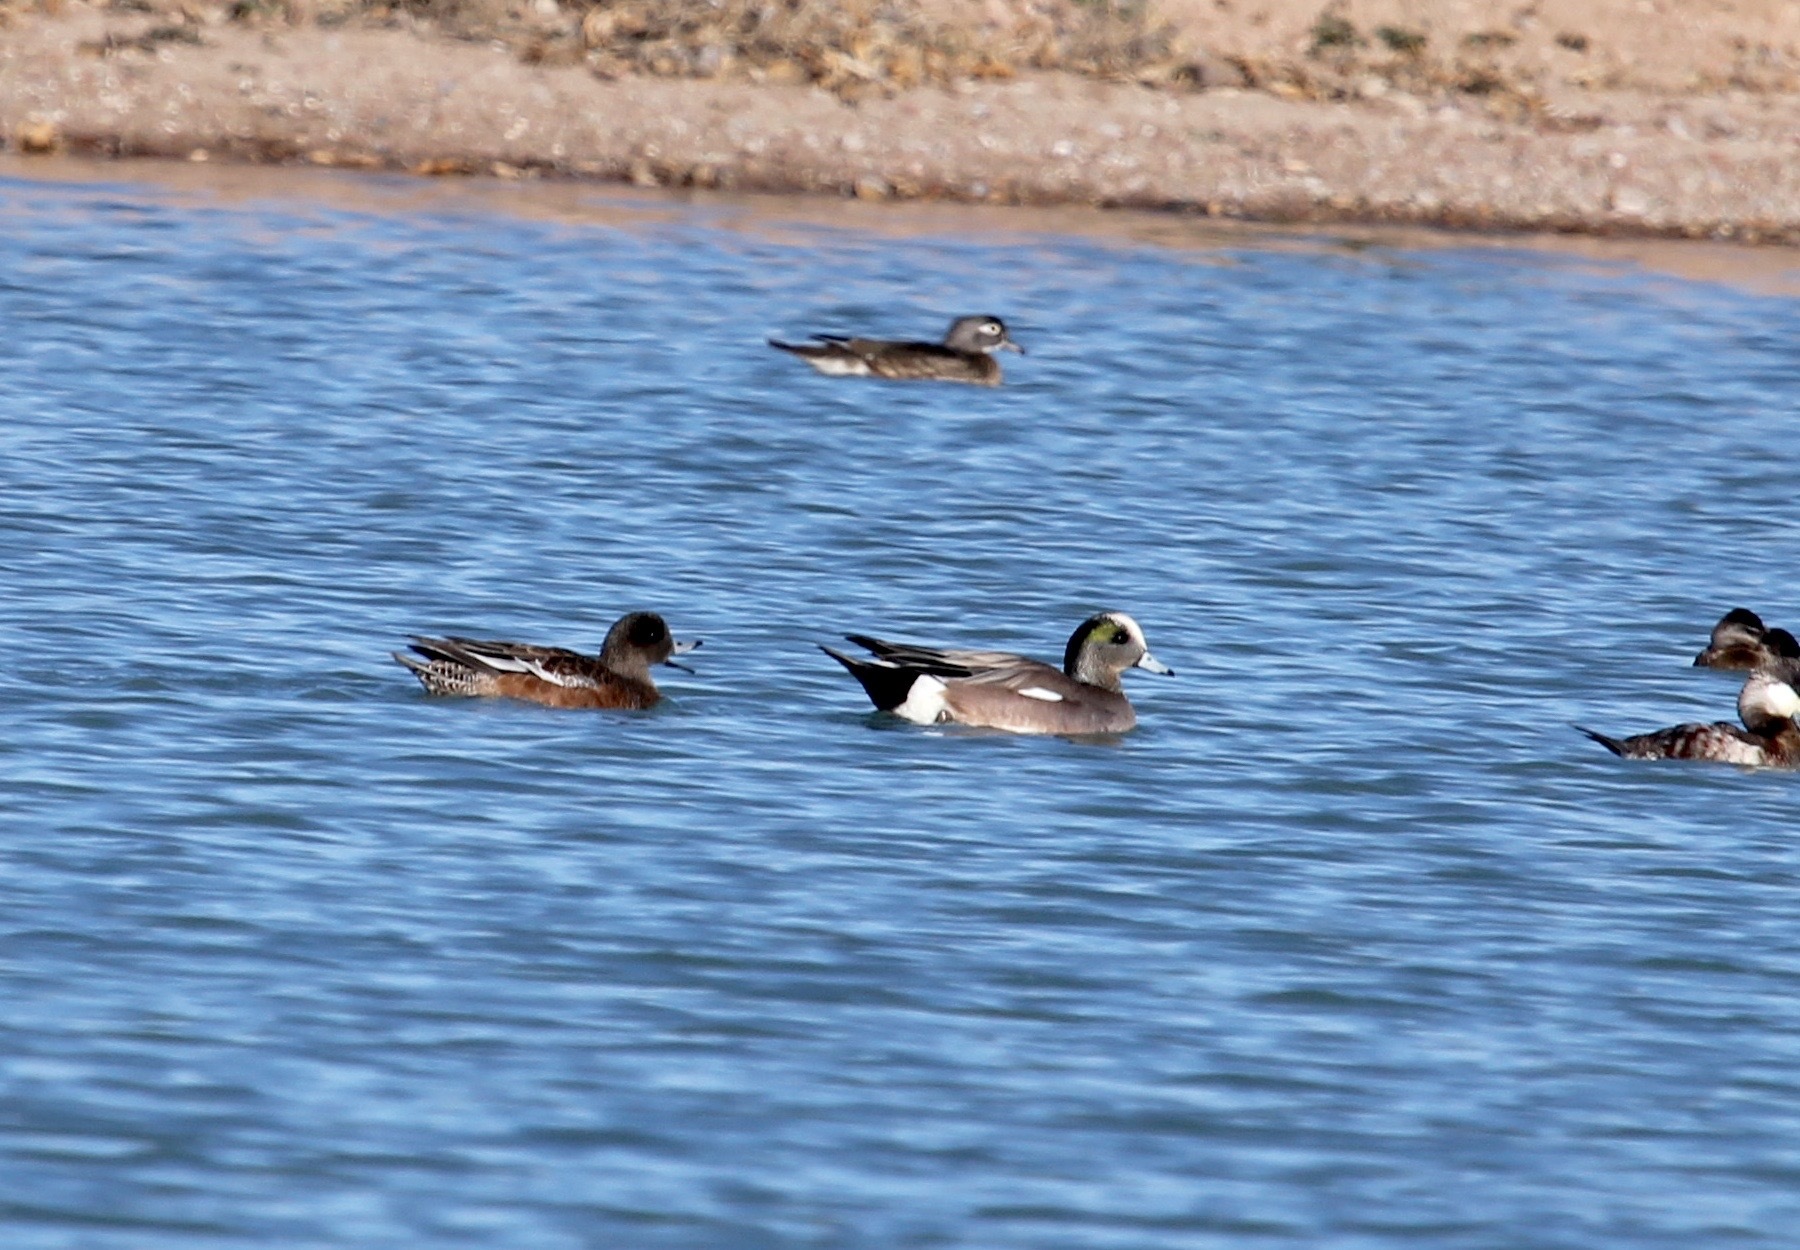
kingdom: Animalia
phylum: Chordata
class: Aves
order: Anseriformes
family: Anatidae
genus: Mareca
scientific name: Mareca americana
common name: American wigeon
